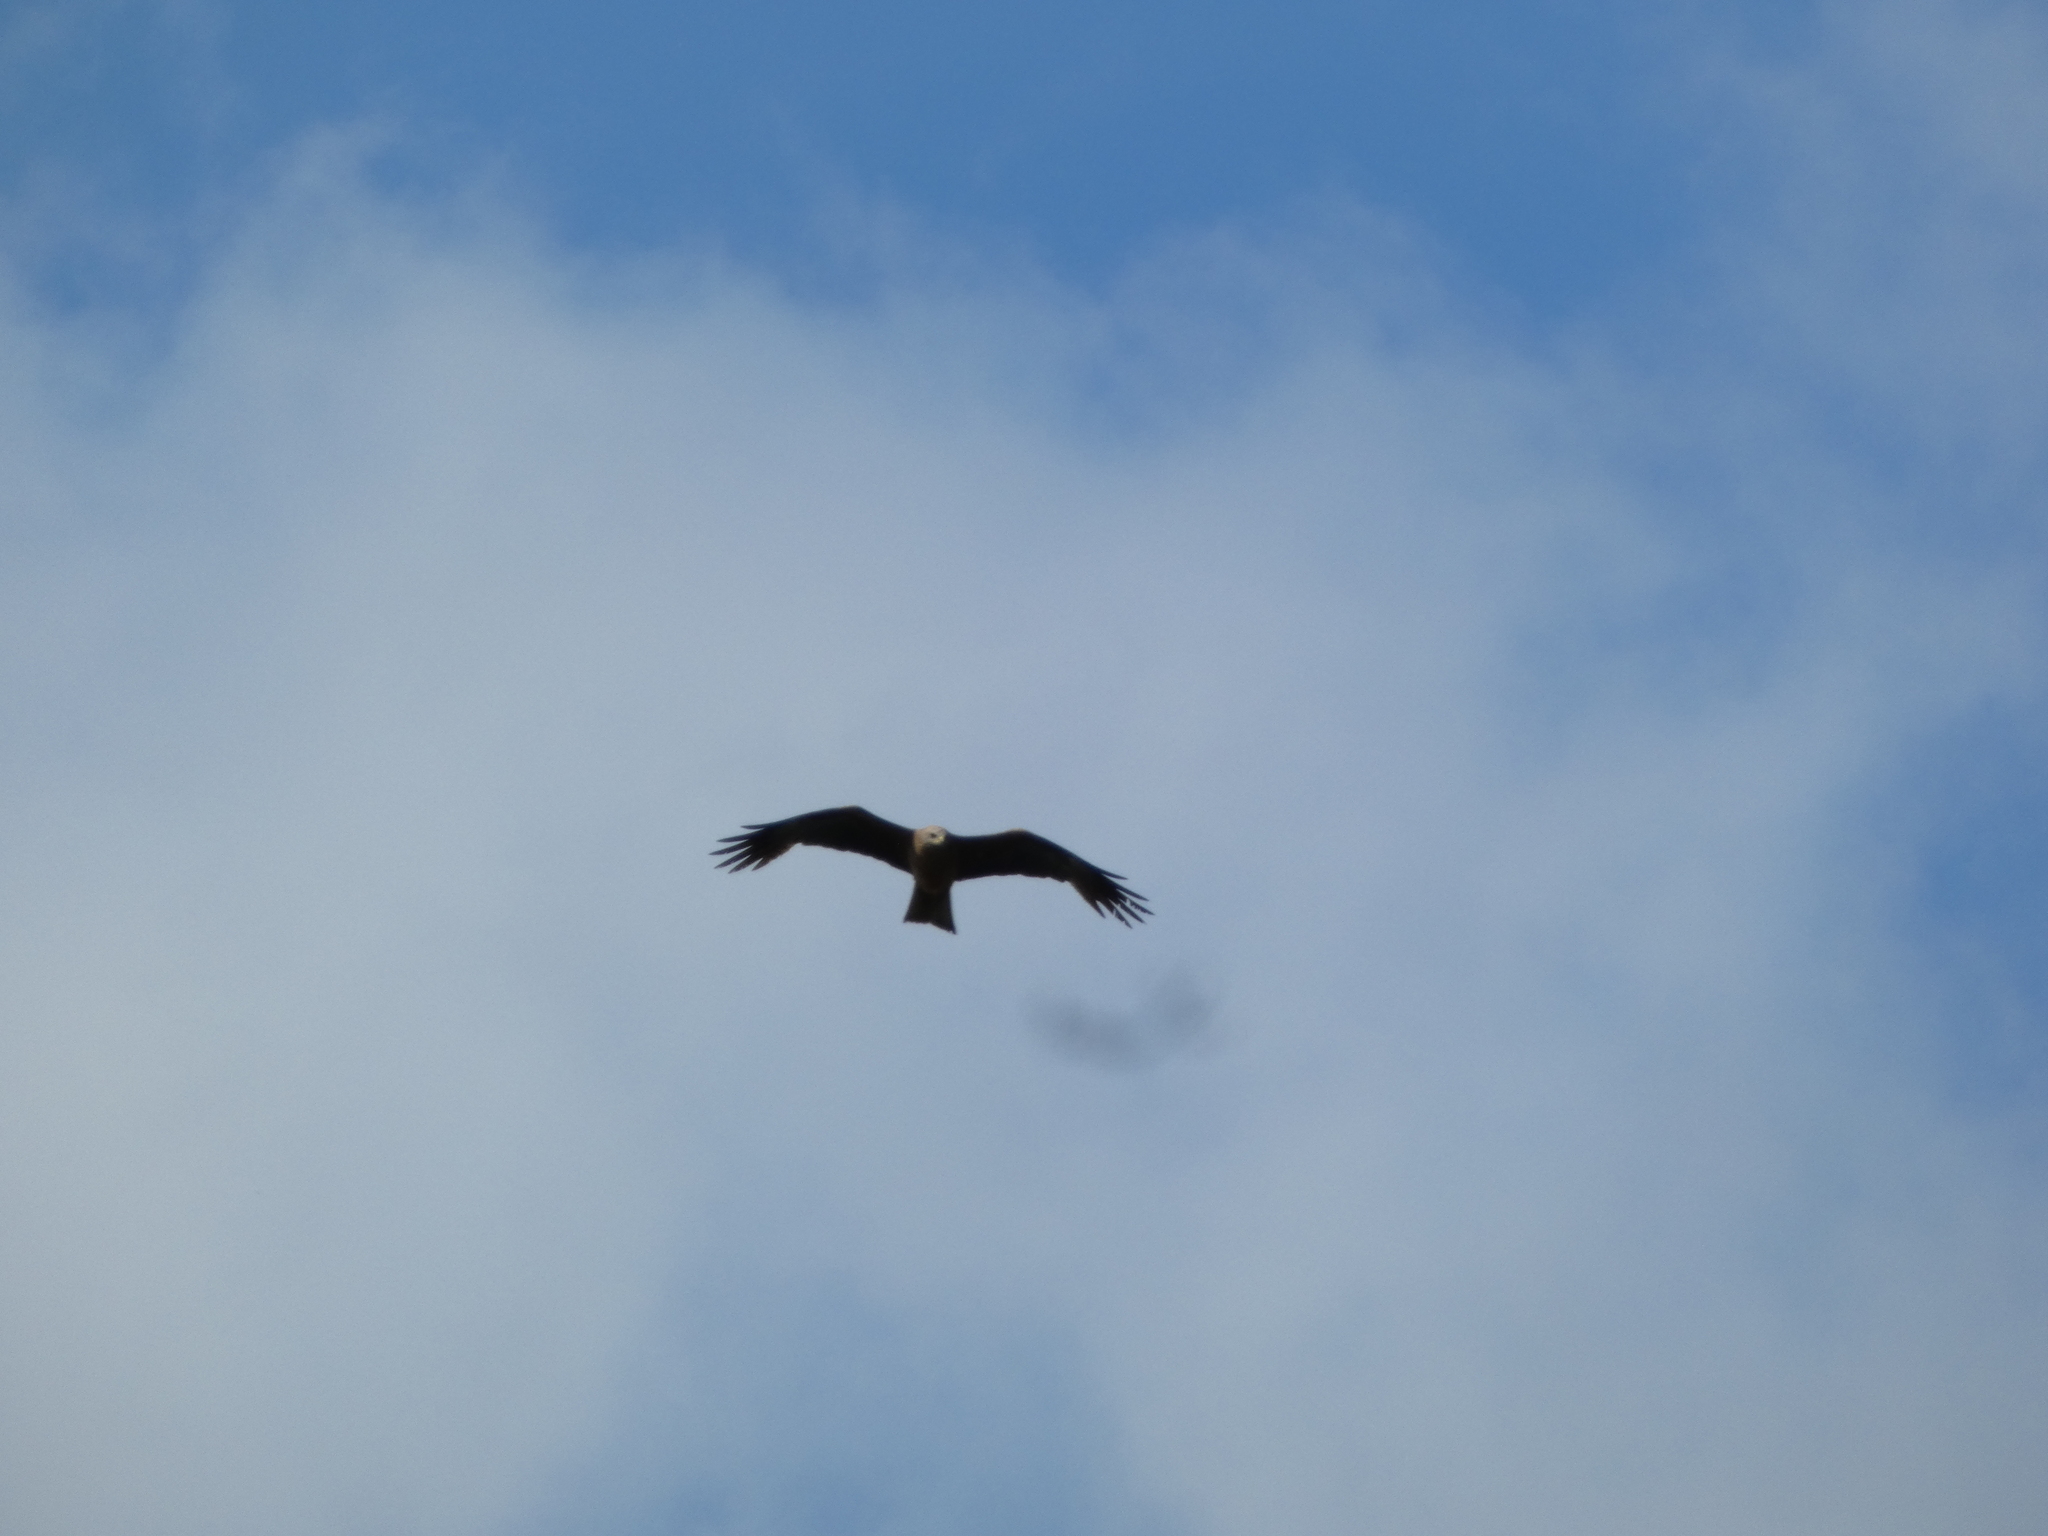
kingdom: Animalia
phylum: Chordata
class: Aves
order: Accipitriformes
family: Accipitridae
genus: Milvus
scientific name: Milvus migrans
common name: Black kite
